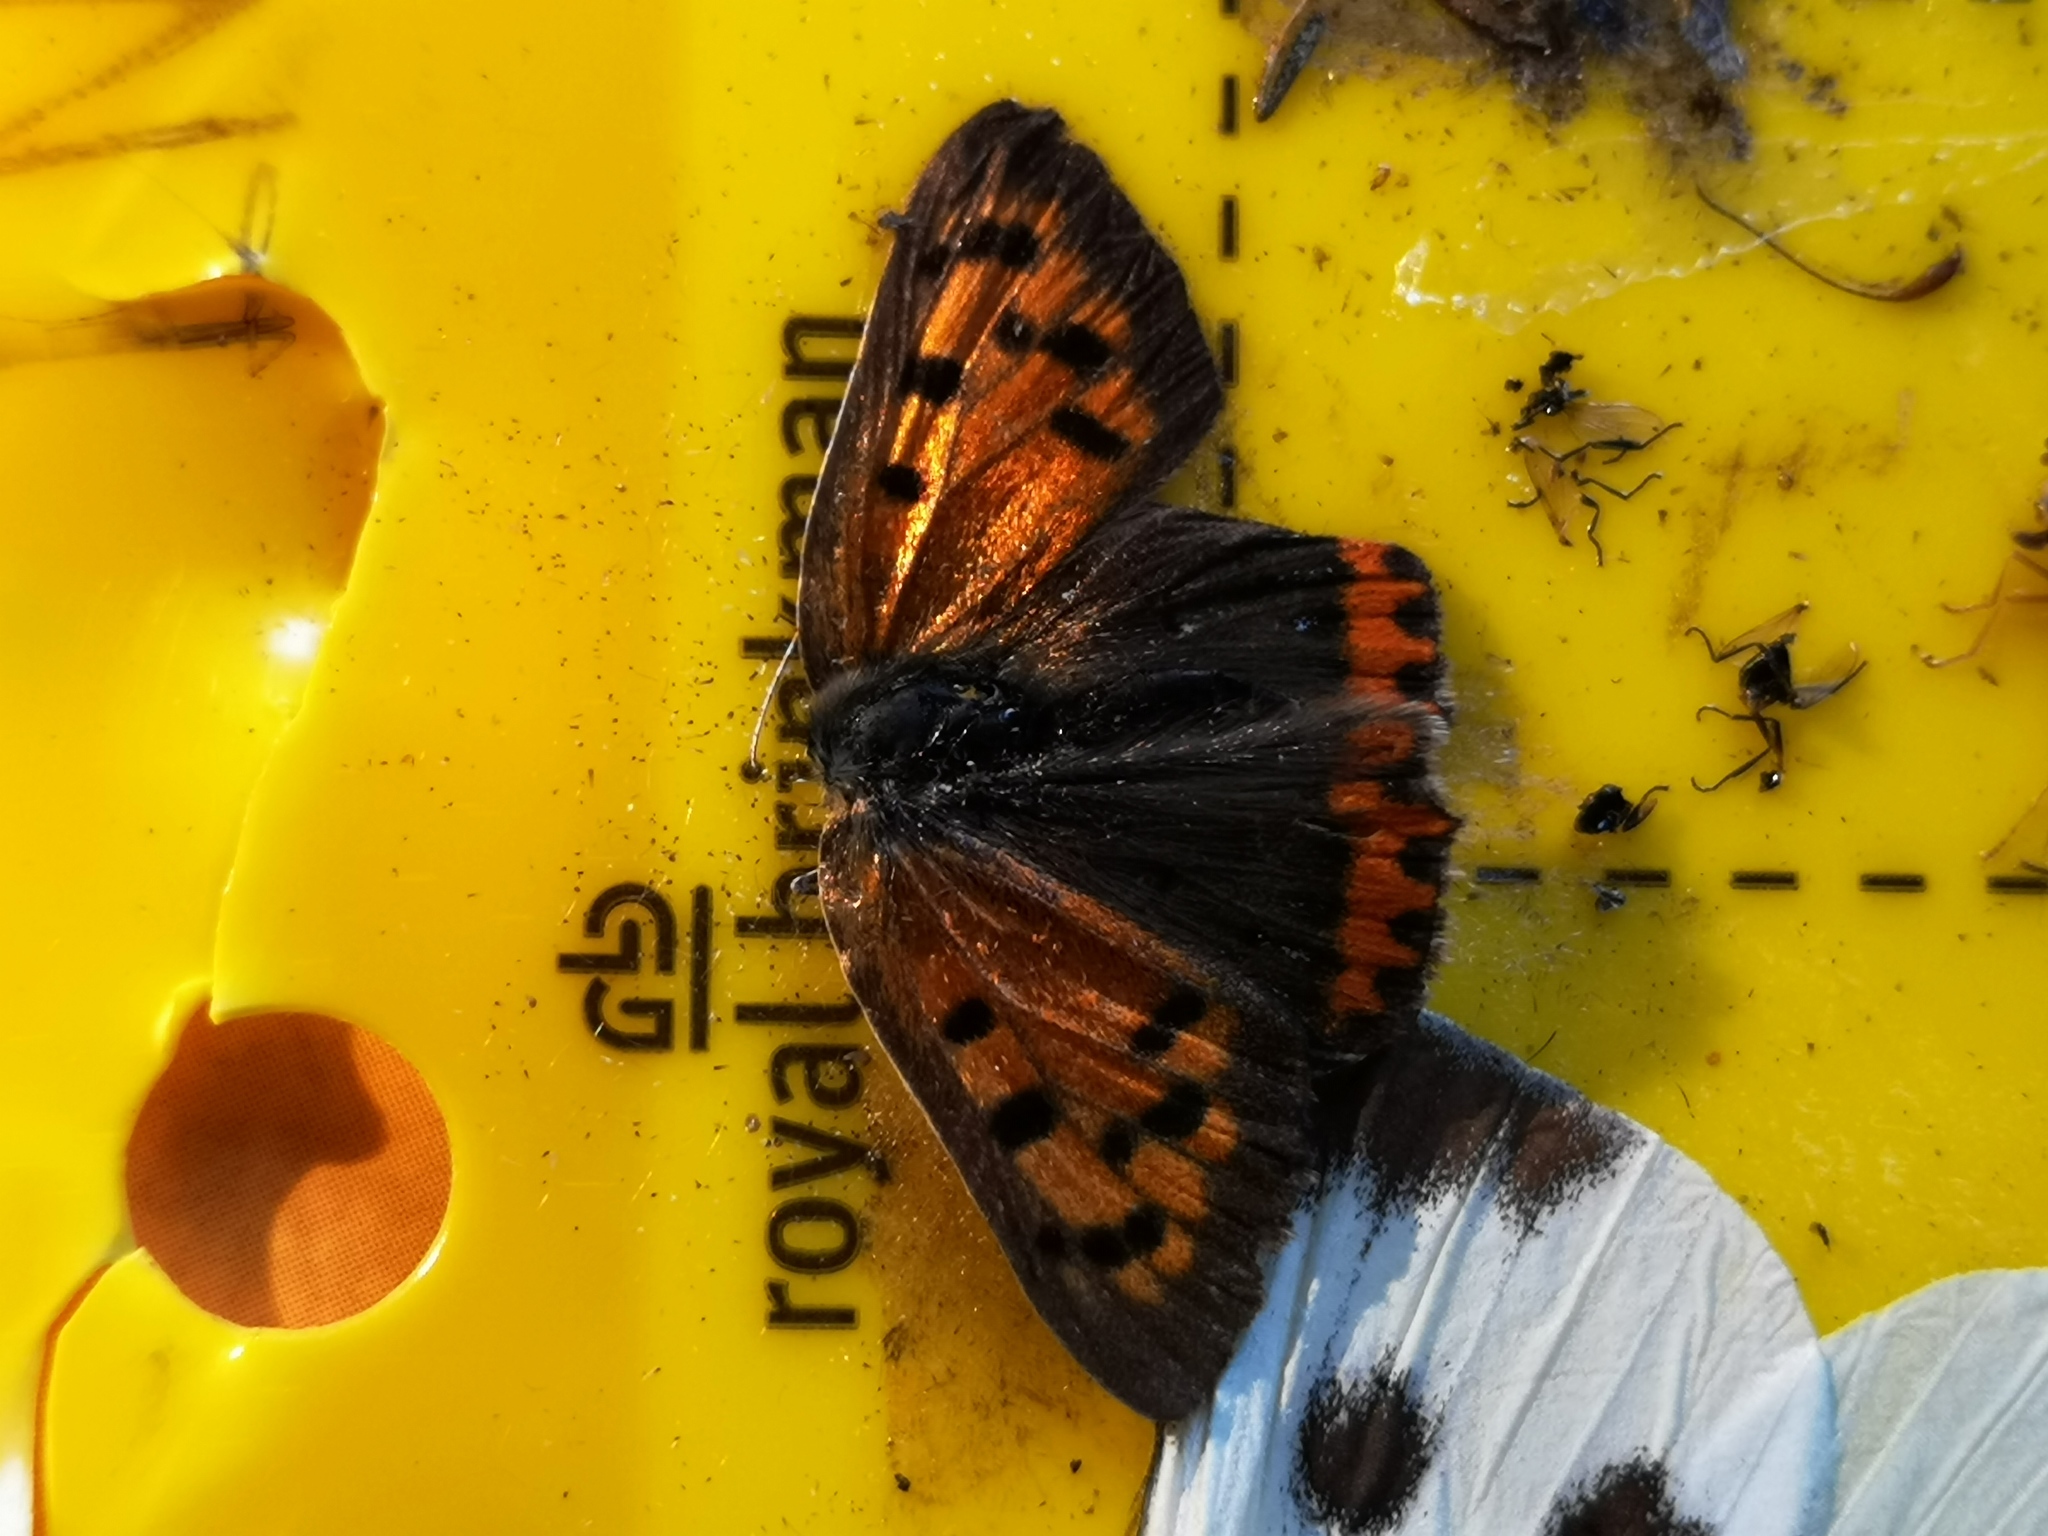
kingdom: Animalia
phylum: Arthropoda
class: Insecta
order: Lepidoptera
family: Lycaenidae
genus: Lycaena
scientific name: Lycaena phlaeas
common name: Small copper
